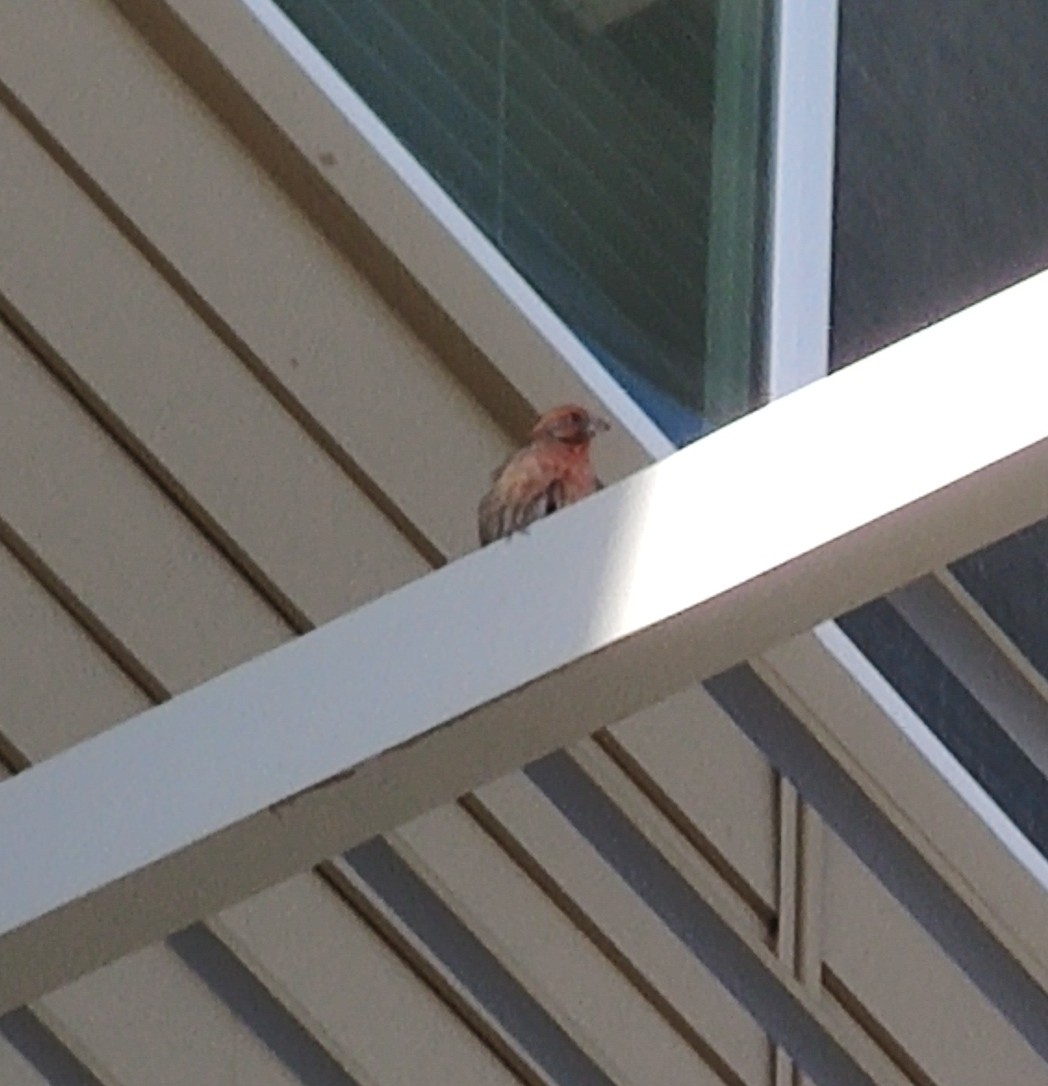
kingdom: Animalia
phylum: Chordata
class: Aves
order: Passeriformes
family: Fringillidae
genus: Haemorhous
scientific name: Haemorhous mexicanus
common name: House finch
